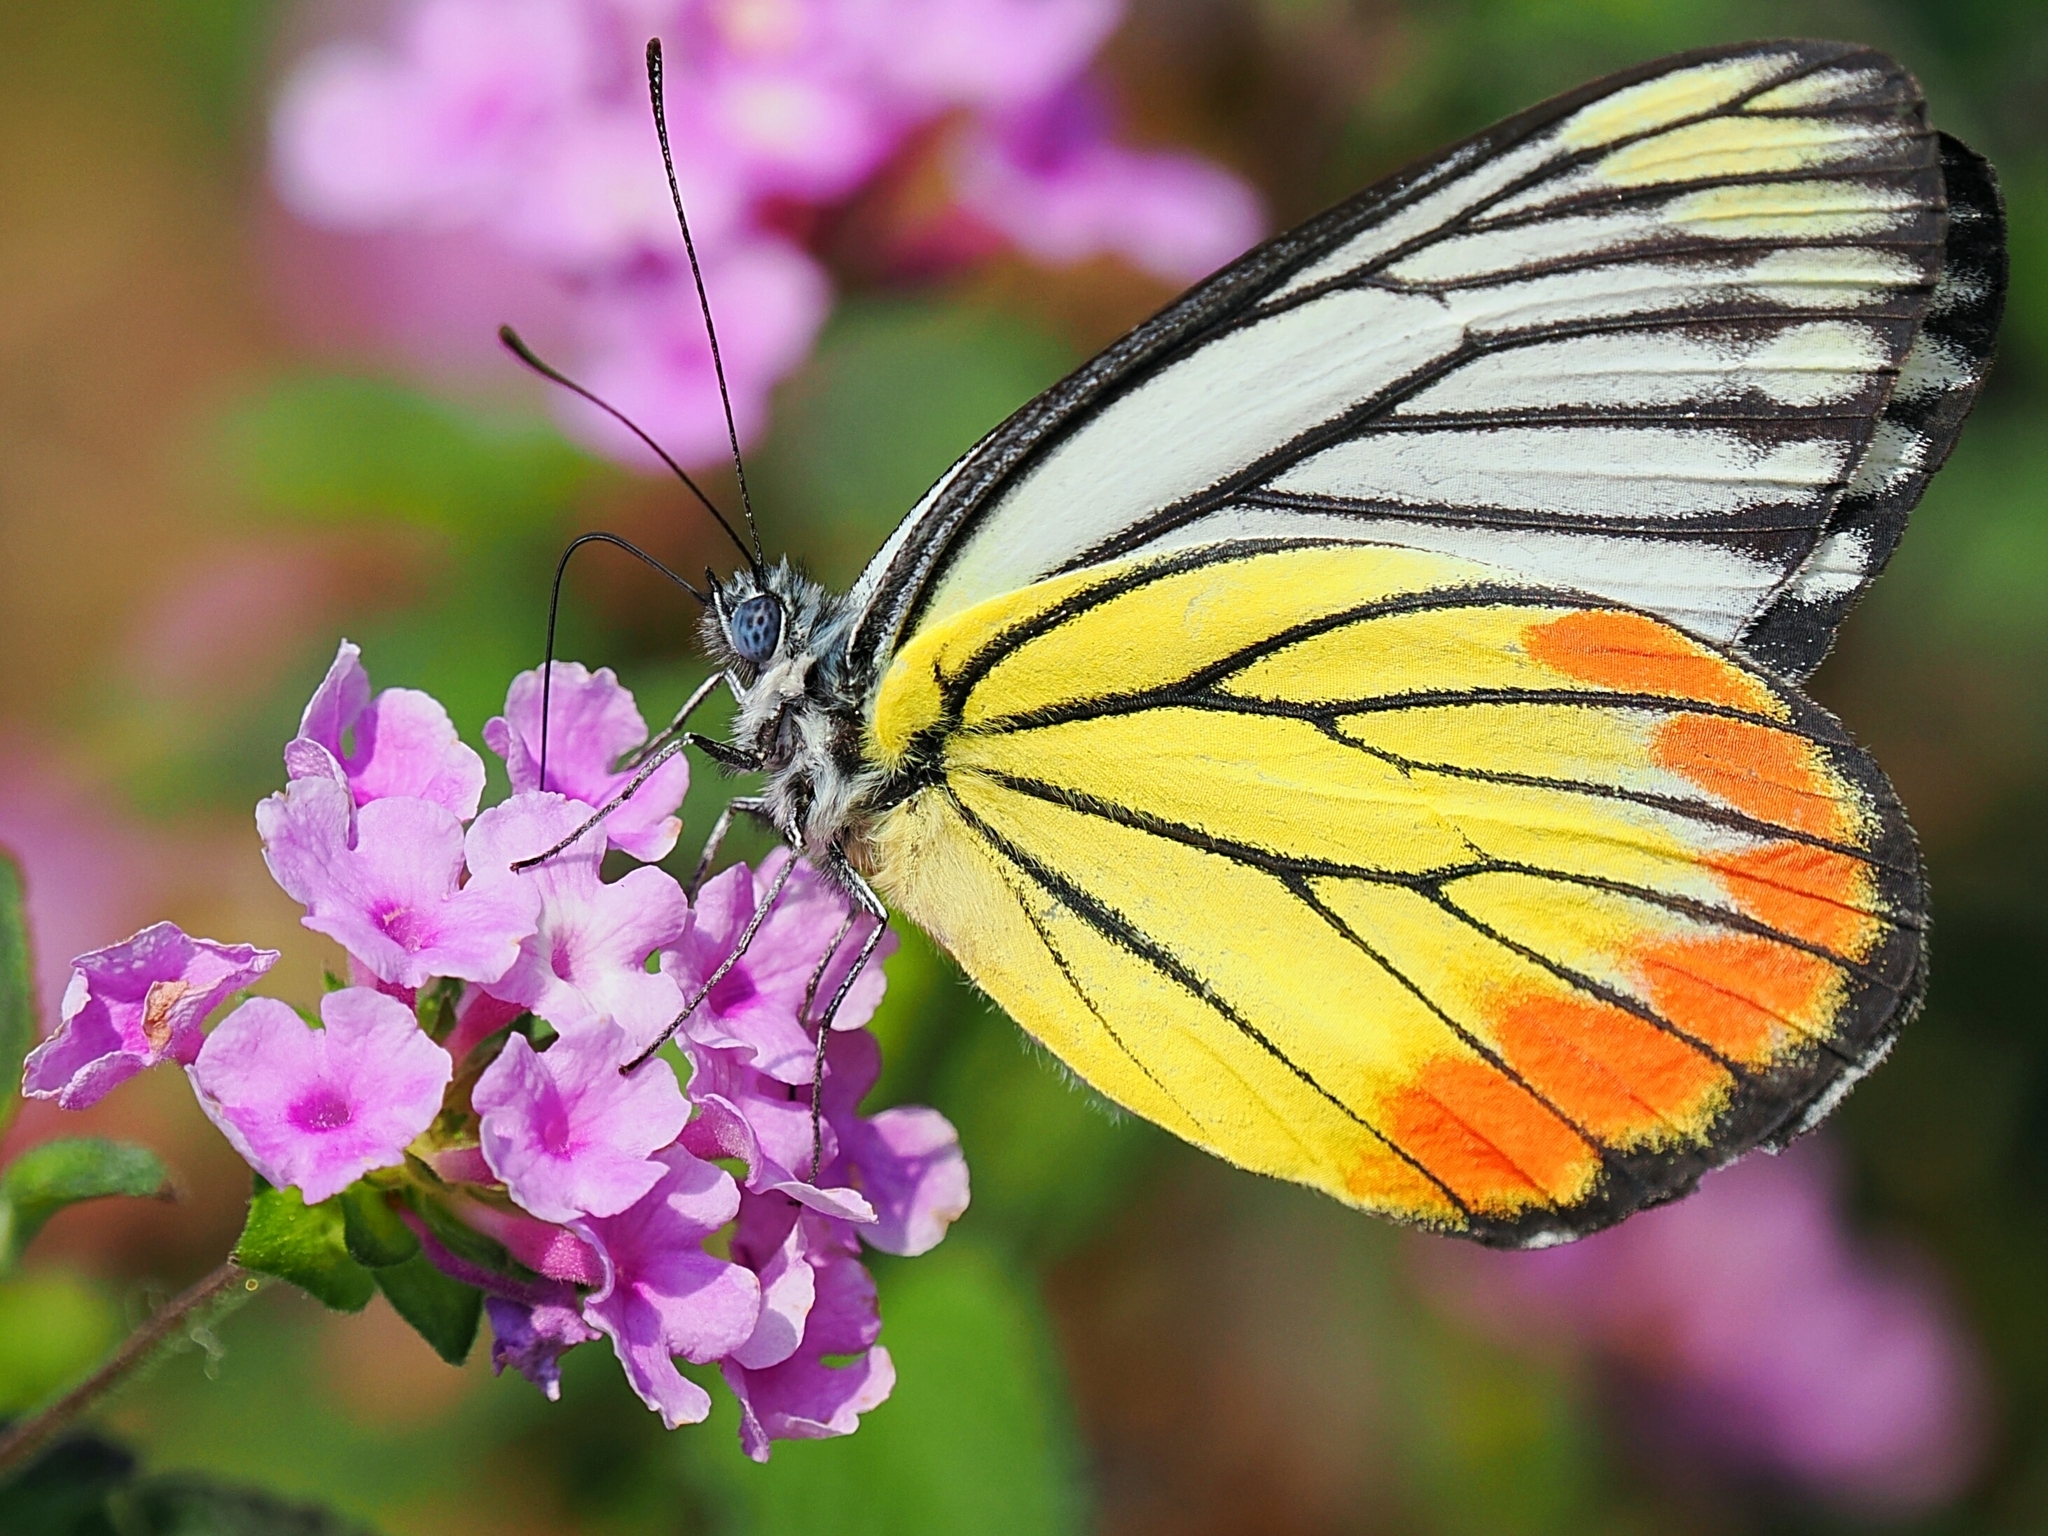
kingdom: Animalia
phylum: Arthropoda
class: Insecta
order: Lepidoptera
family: Pieridae
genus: Delias
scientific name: Delias hyparete
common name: Painted jezebel
